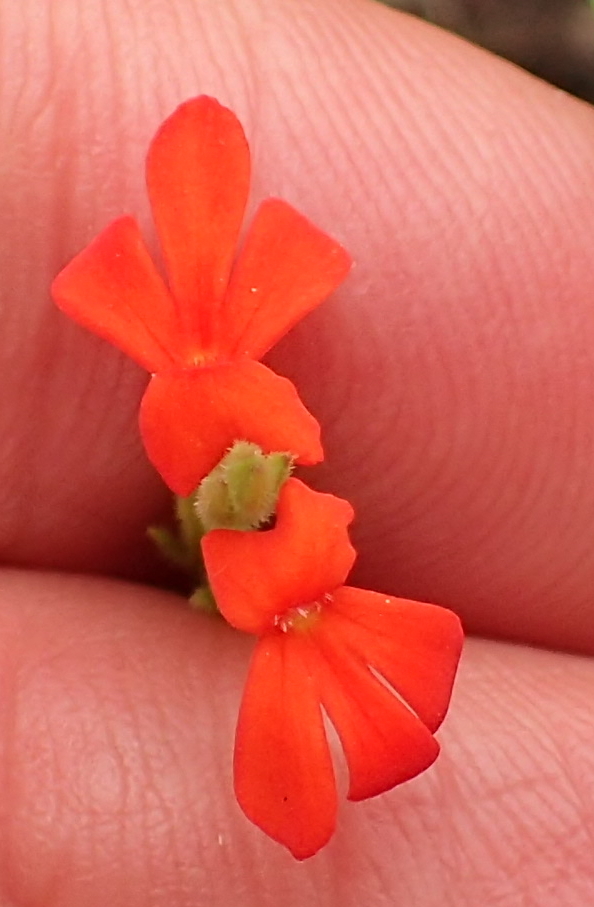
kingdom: Plantae
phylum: Tracheophyta
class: Magnoliopsida
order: Lamiales
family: Orobanchaceae
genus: Striga
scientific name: Striga asiatica
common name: Asiatic witchweed
